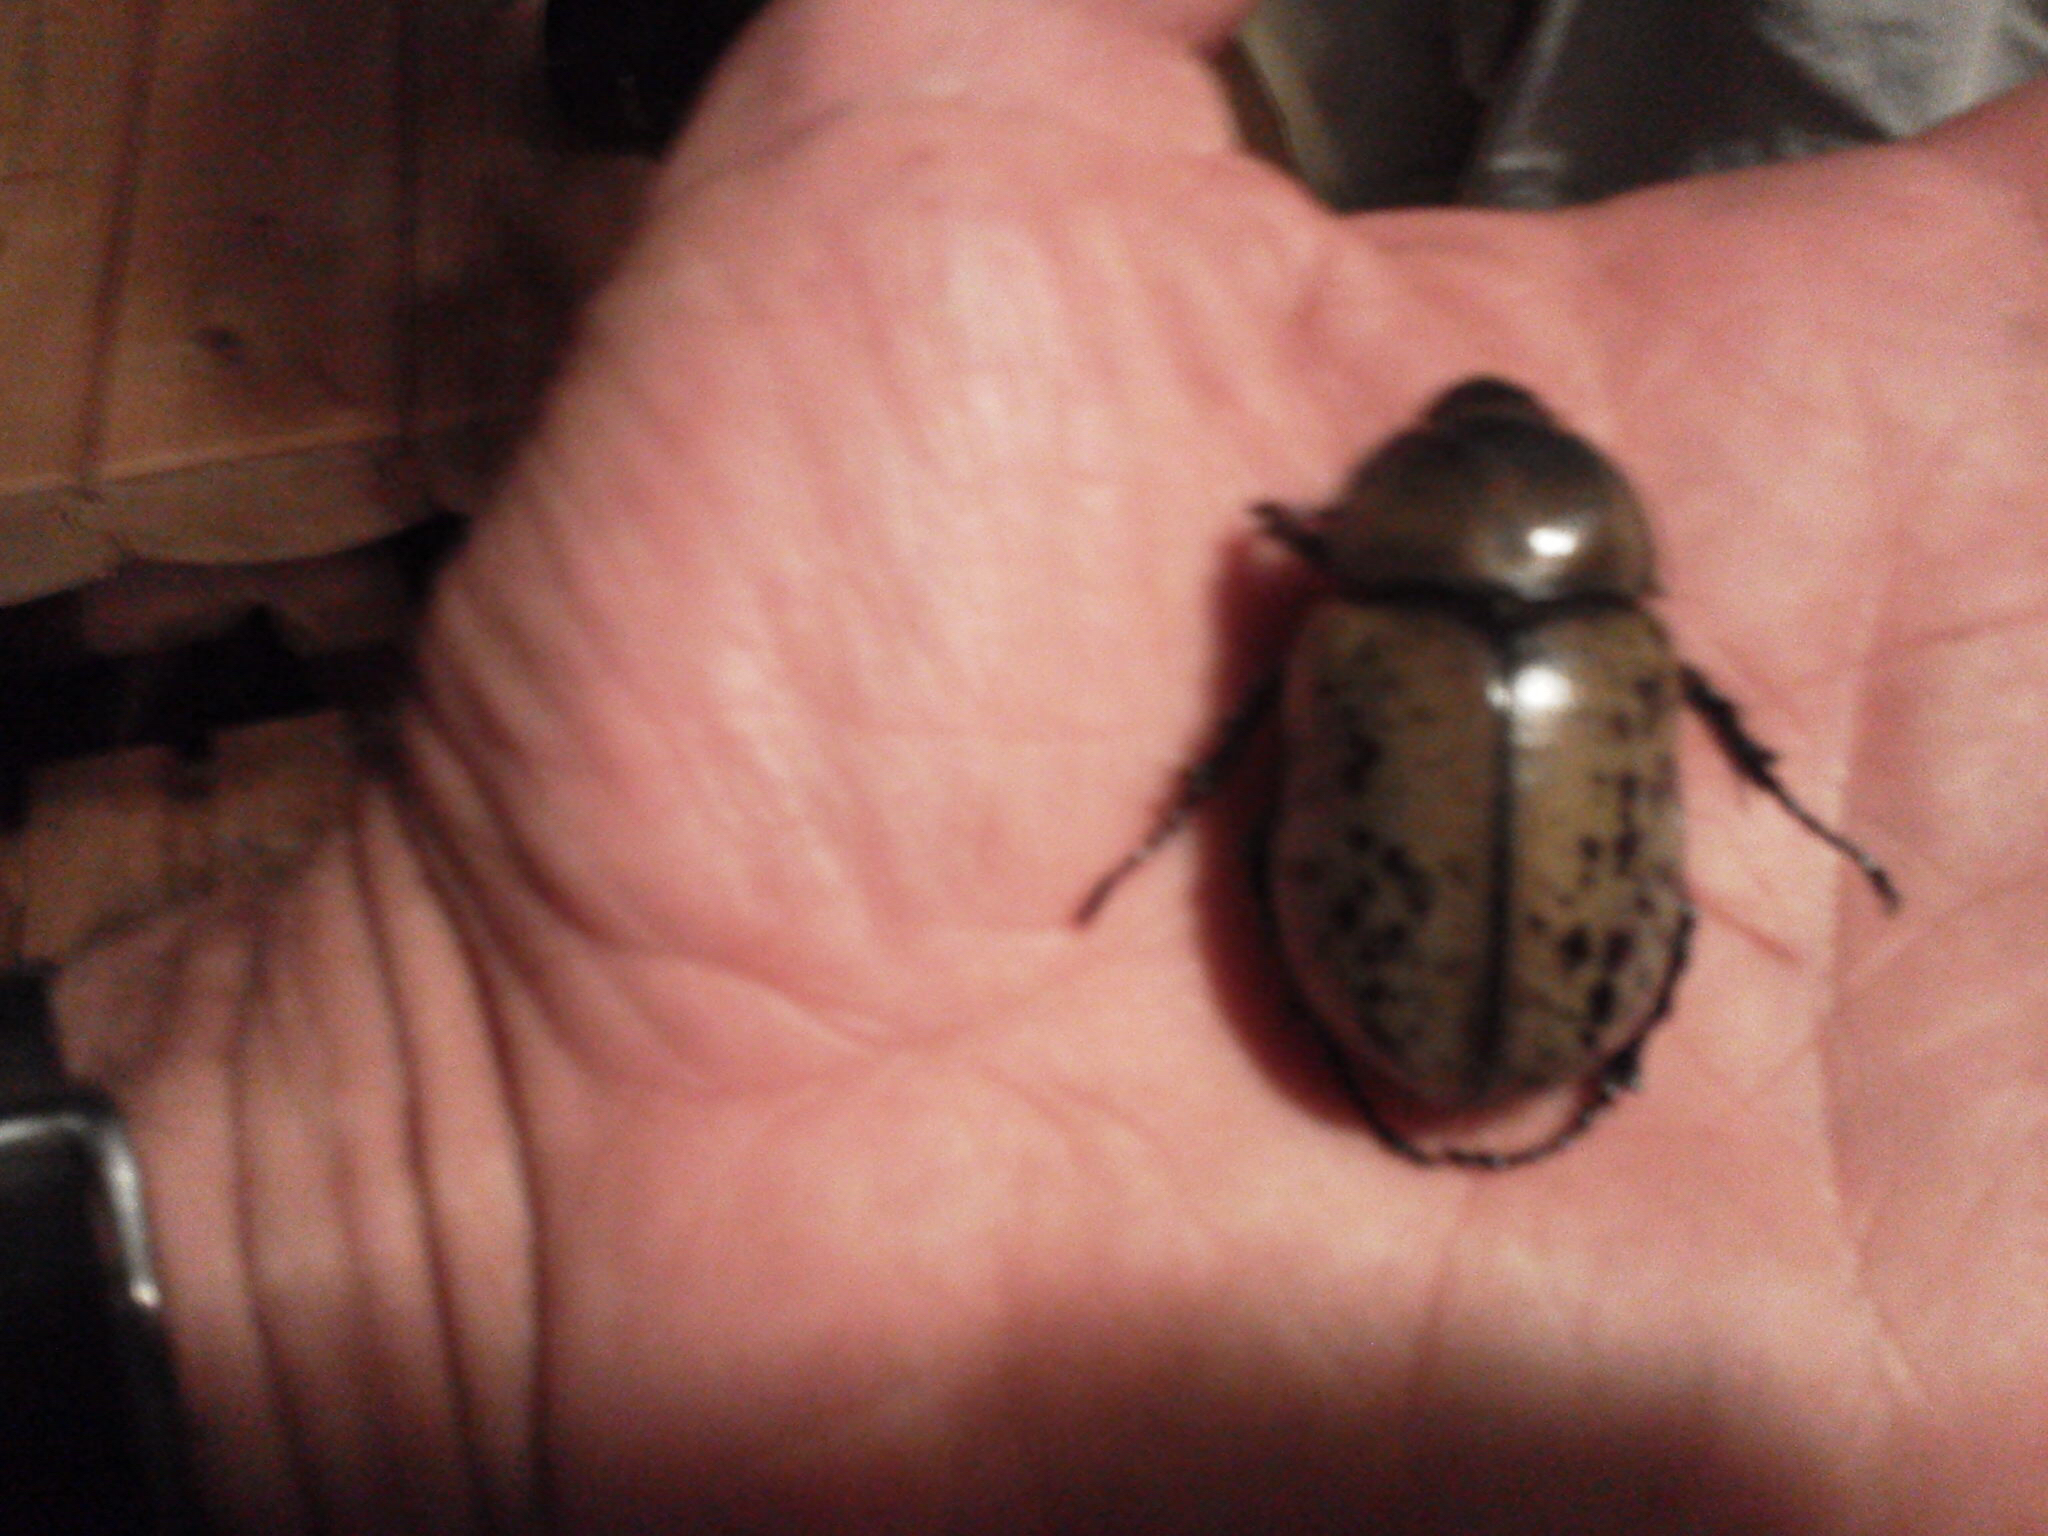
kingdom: Animalia
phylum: Arthropoda
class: Insecta
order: Coleoptera
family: Scarabaeidae
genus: Dynastes
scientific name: Dynastes tityus
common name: Eastern hercules beetle
